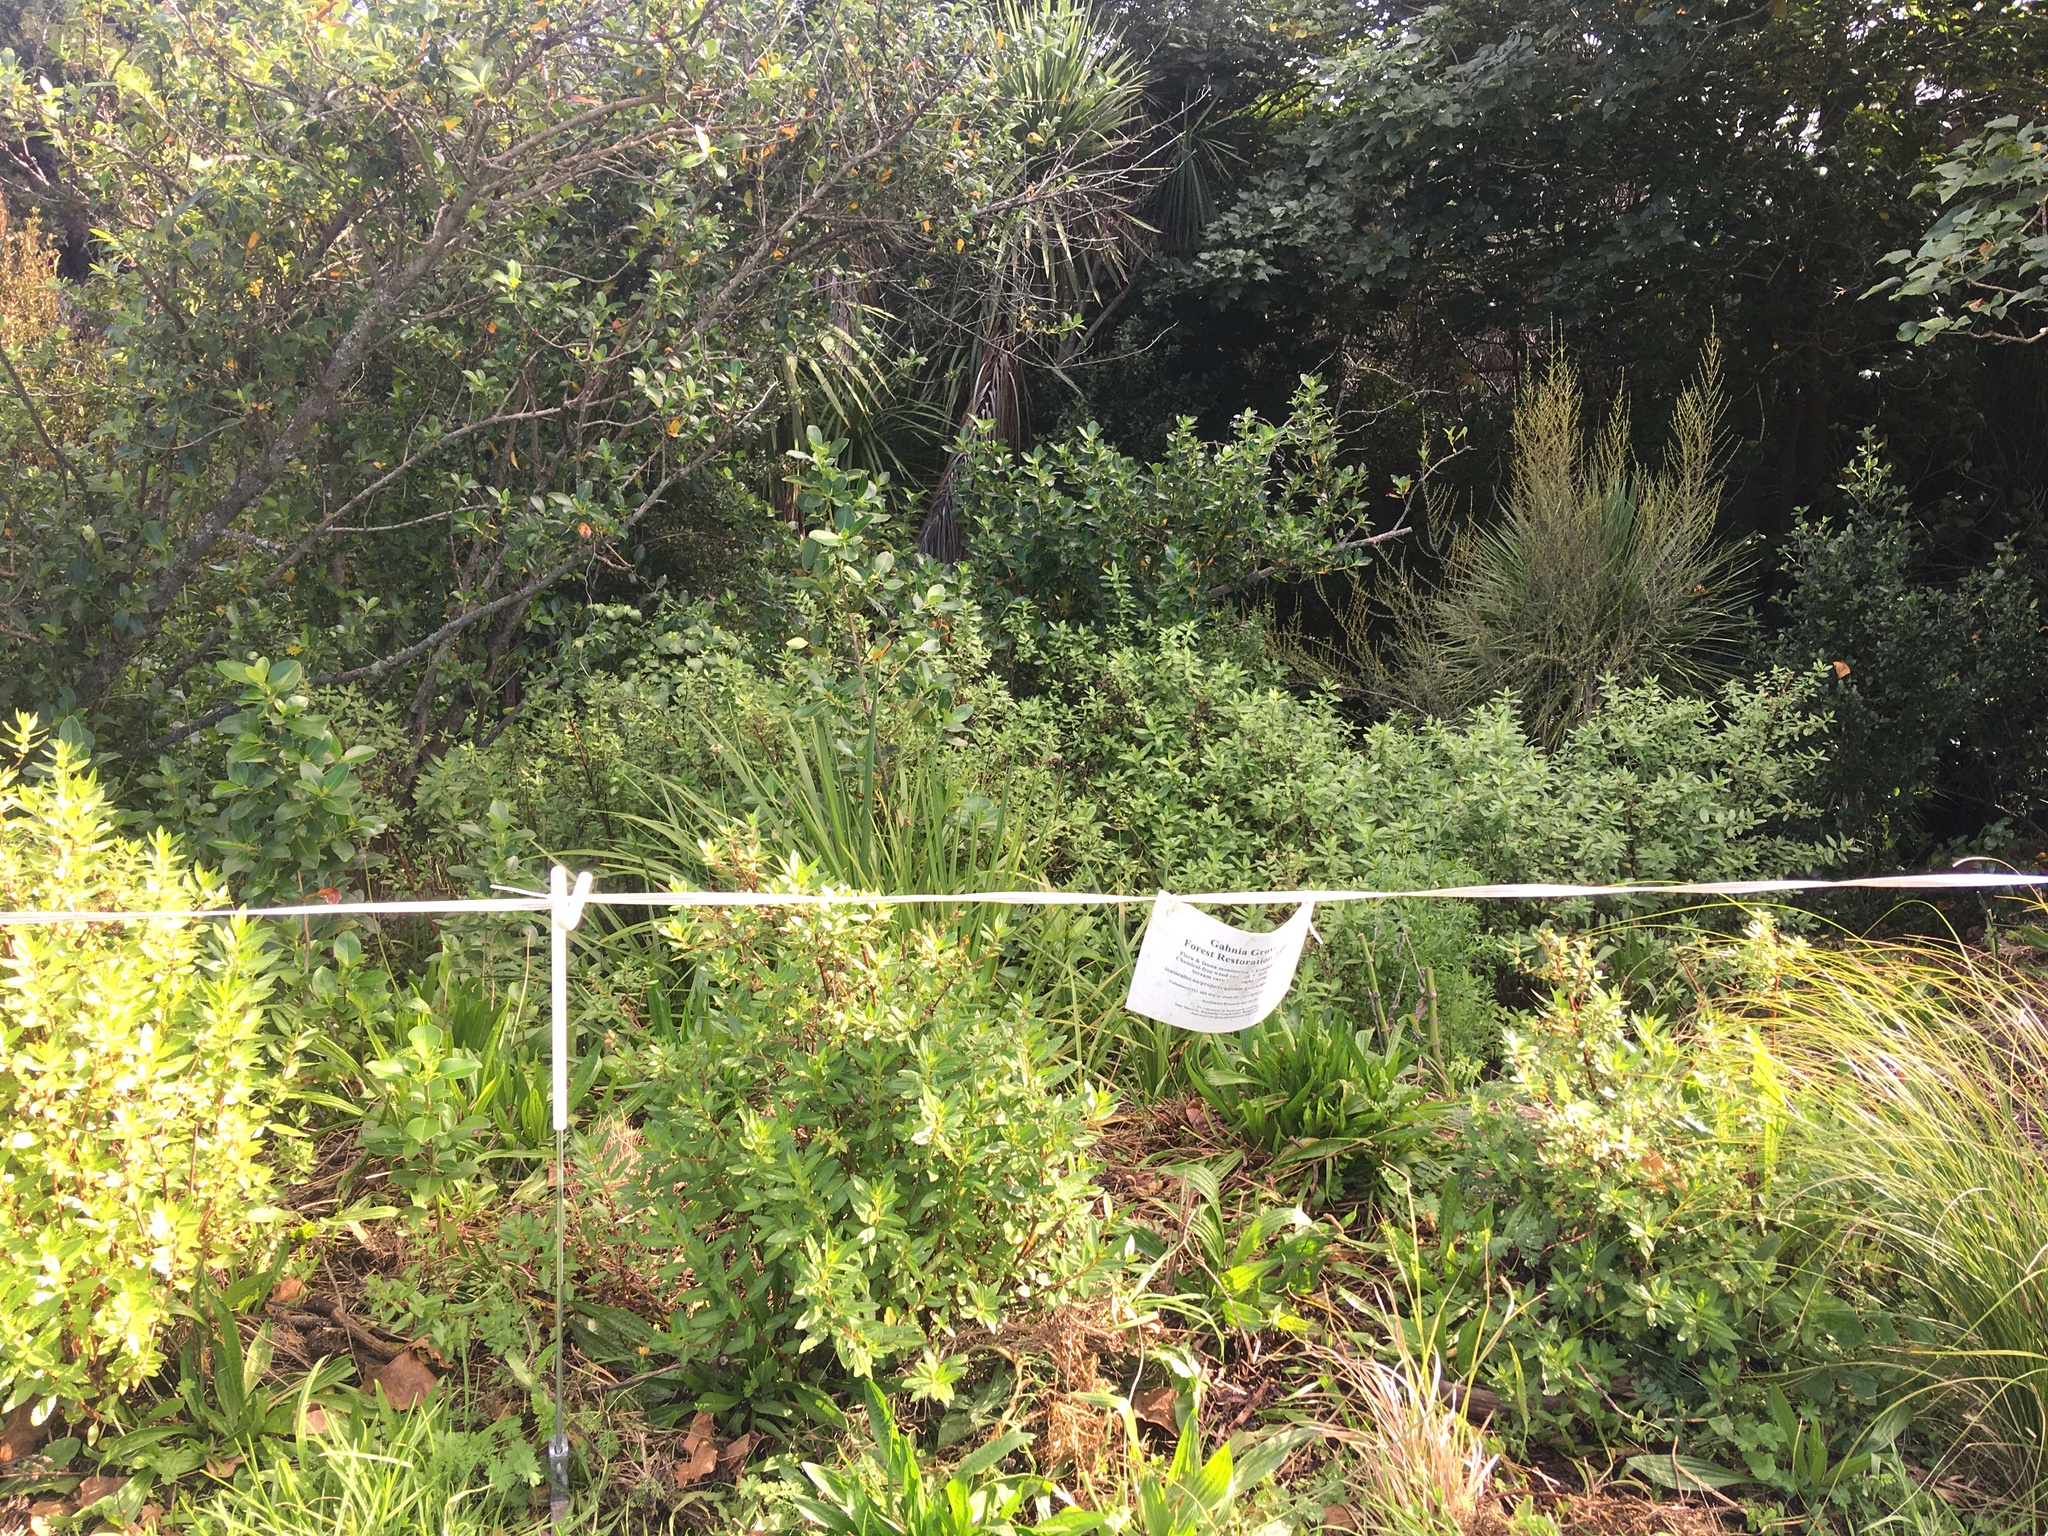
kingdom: Plantae
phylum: Tracheophyta
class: Magnoliopsida
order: Saxifragales
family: Haloragaceae
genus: Haloragis
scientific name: Haloragis erecta
